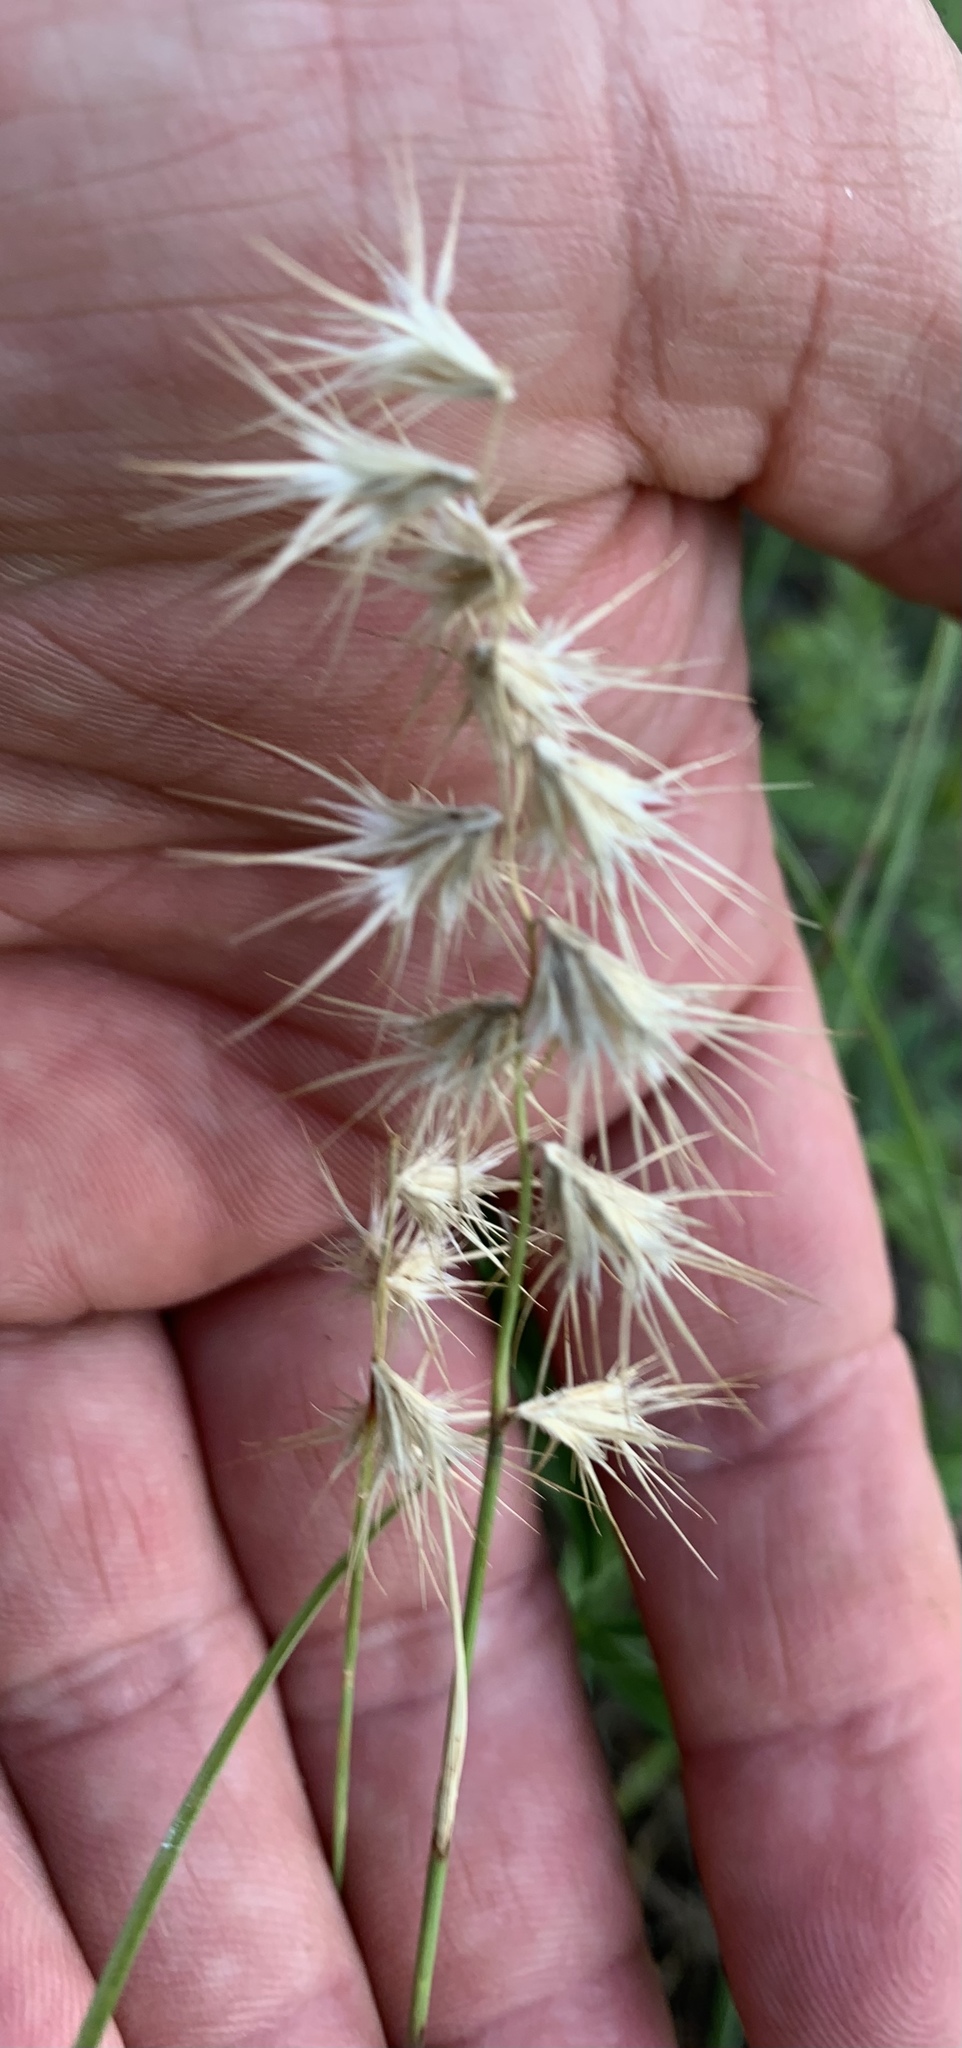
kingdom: Plantae
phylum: Tracheophyta
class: Liliopsida
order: Poales
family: Poaceae
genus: Bouteloua
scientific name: Bouteloua rigidiseta
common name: Texas grama
